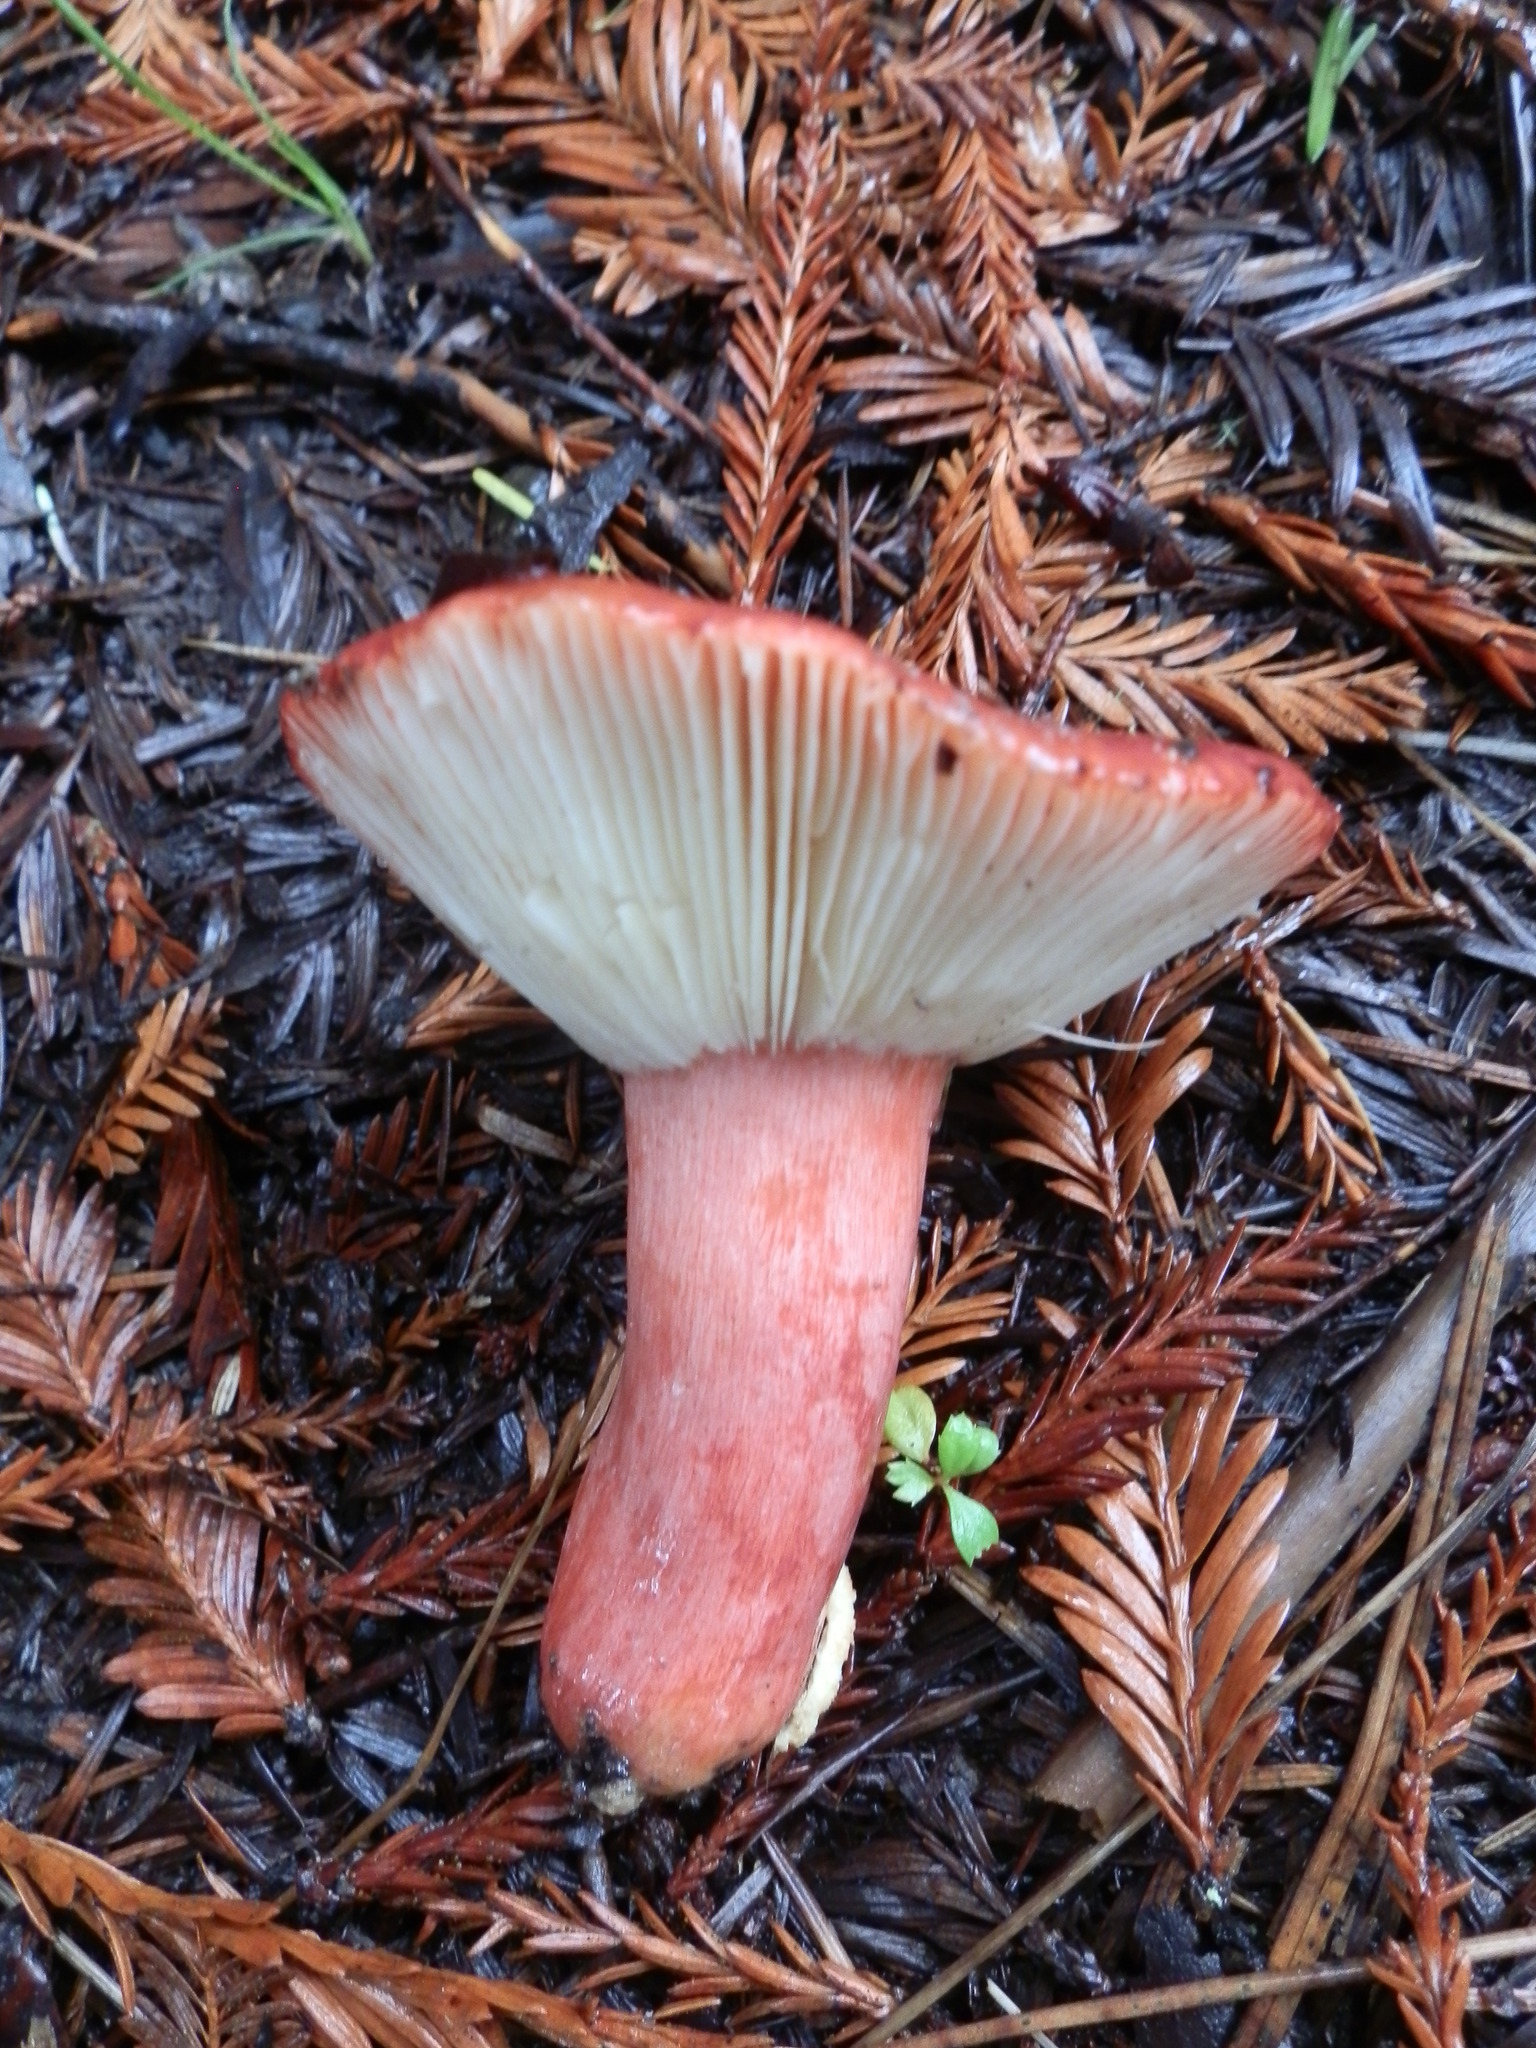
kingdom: Fungi
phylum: Basidiomycota
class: Agaricomycetes
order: Russulales
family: Russulaceae
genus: Russula
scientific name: Russula sanguinaria
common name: Bloody brittlegill
